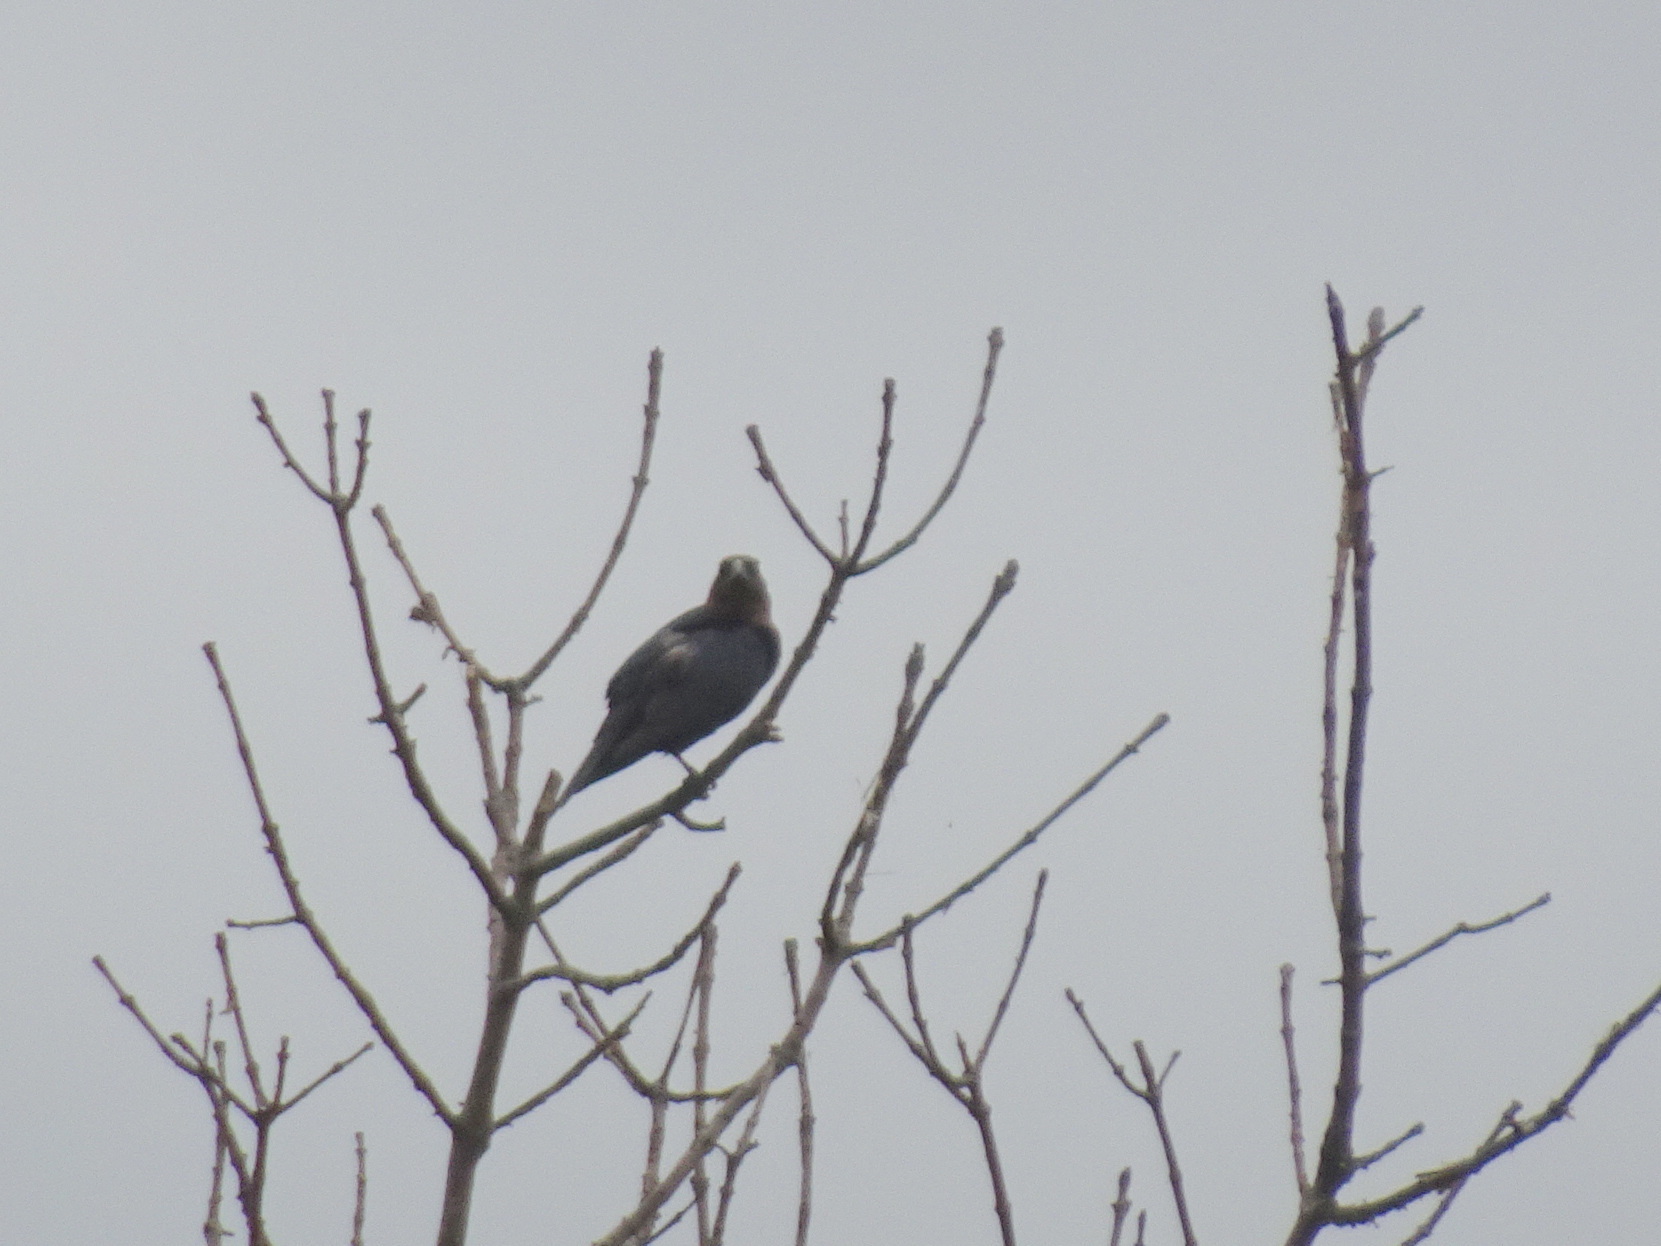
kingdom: Animalia
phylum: Chordata
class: Aves
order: Passeriformes
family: Icteridae
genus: Molothrus
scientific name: Molothrus ater
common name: Brown-headed cowbird
